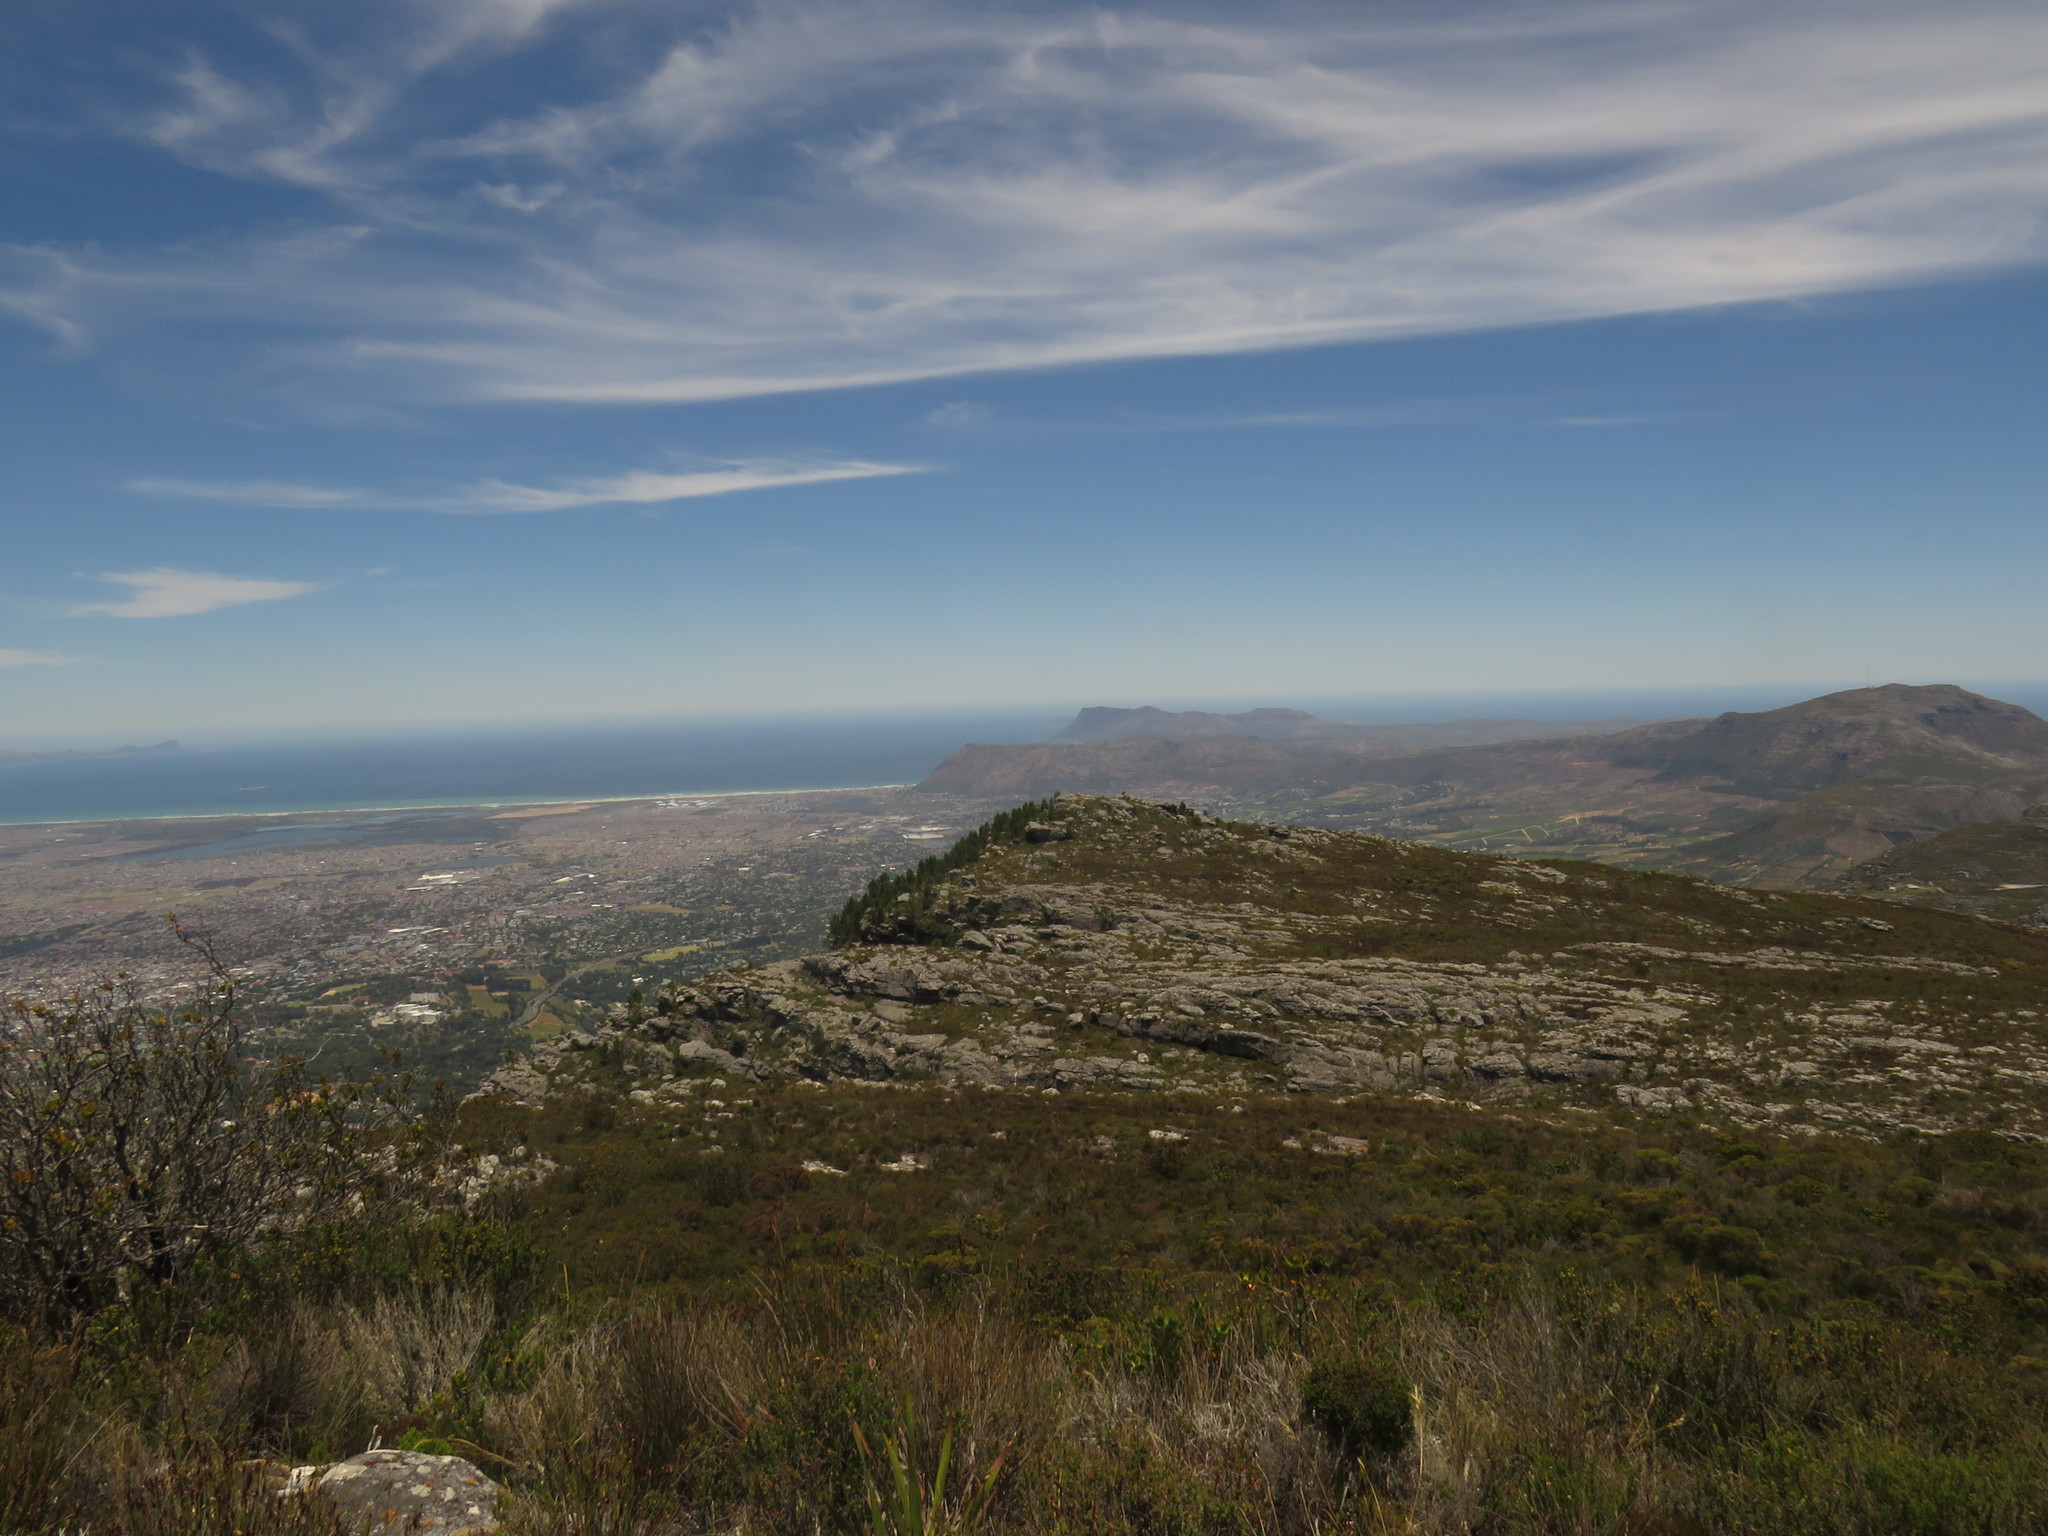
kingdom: Plantae
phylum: Tracheophyta
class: Magnoliopsida
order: Proteales
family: Proteaceae
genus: Leucadendron
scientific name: Leucadendron strobilinum
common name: Mountain rose
